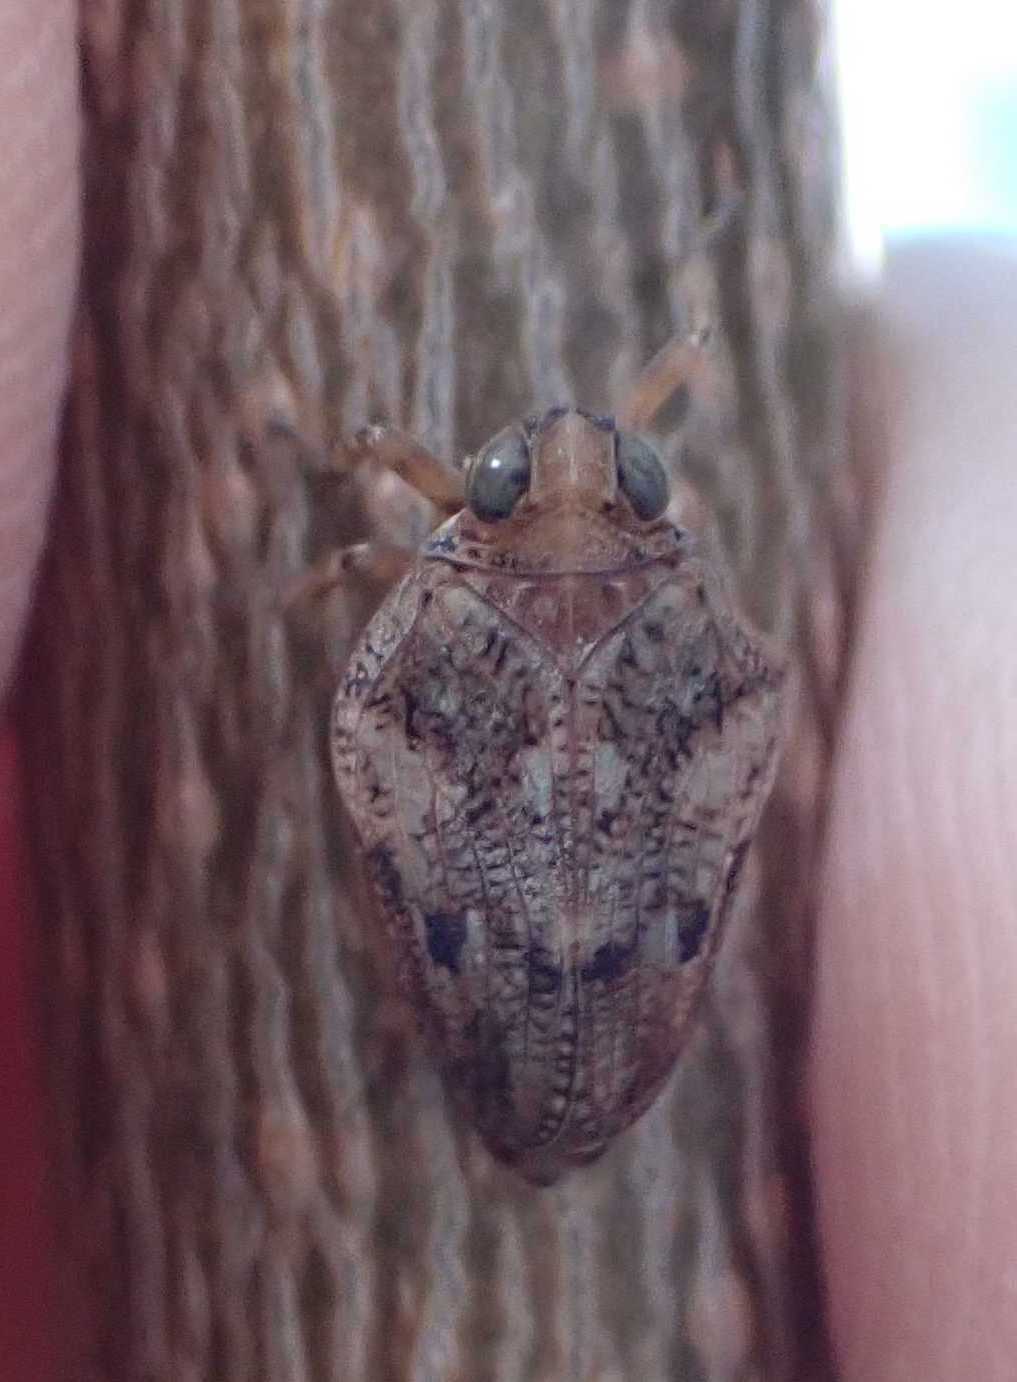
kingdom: Animalia
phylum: Arthropoda
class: Insecta
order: Hemiptera
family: Issidae
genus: Issus
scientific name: Issus coleoptratus
